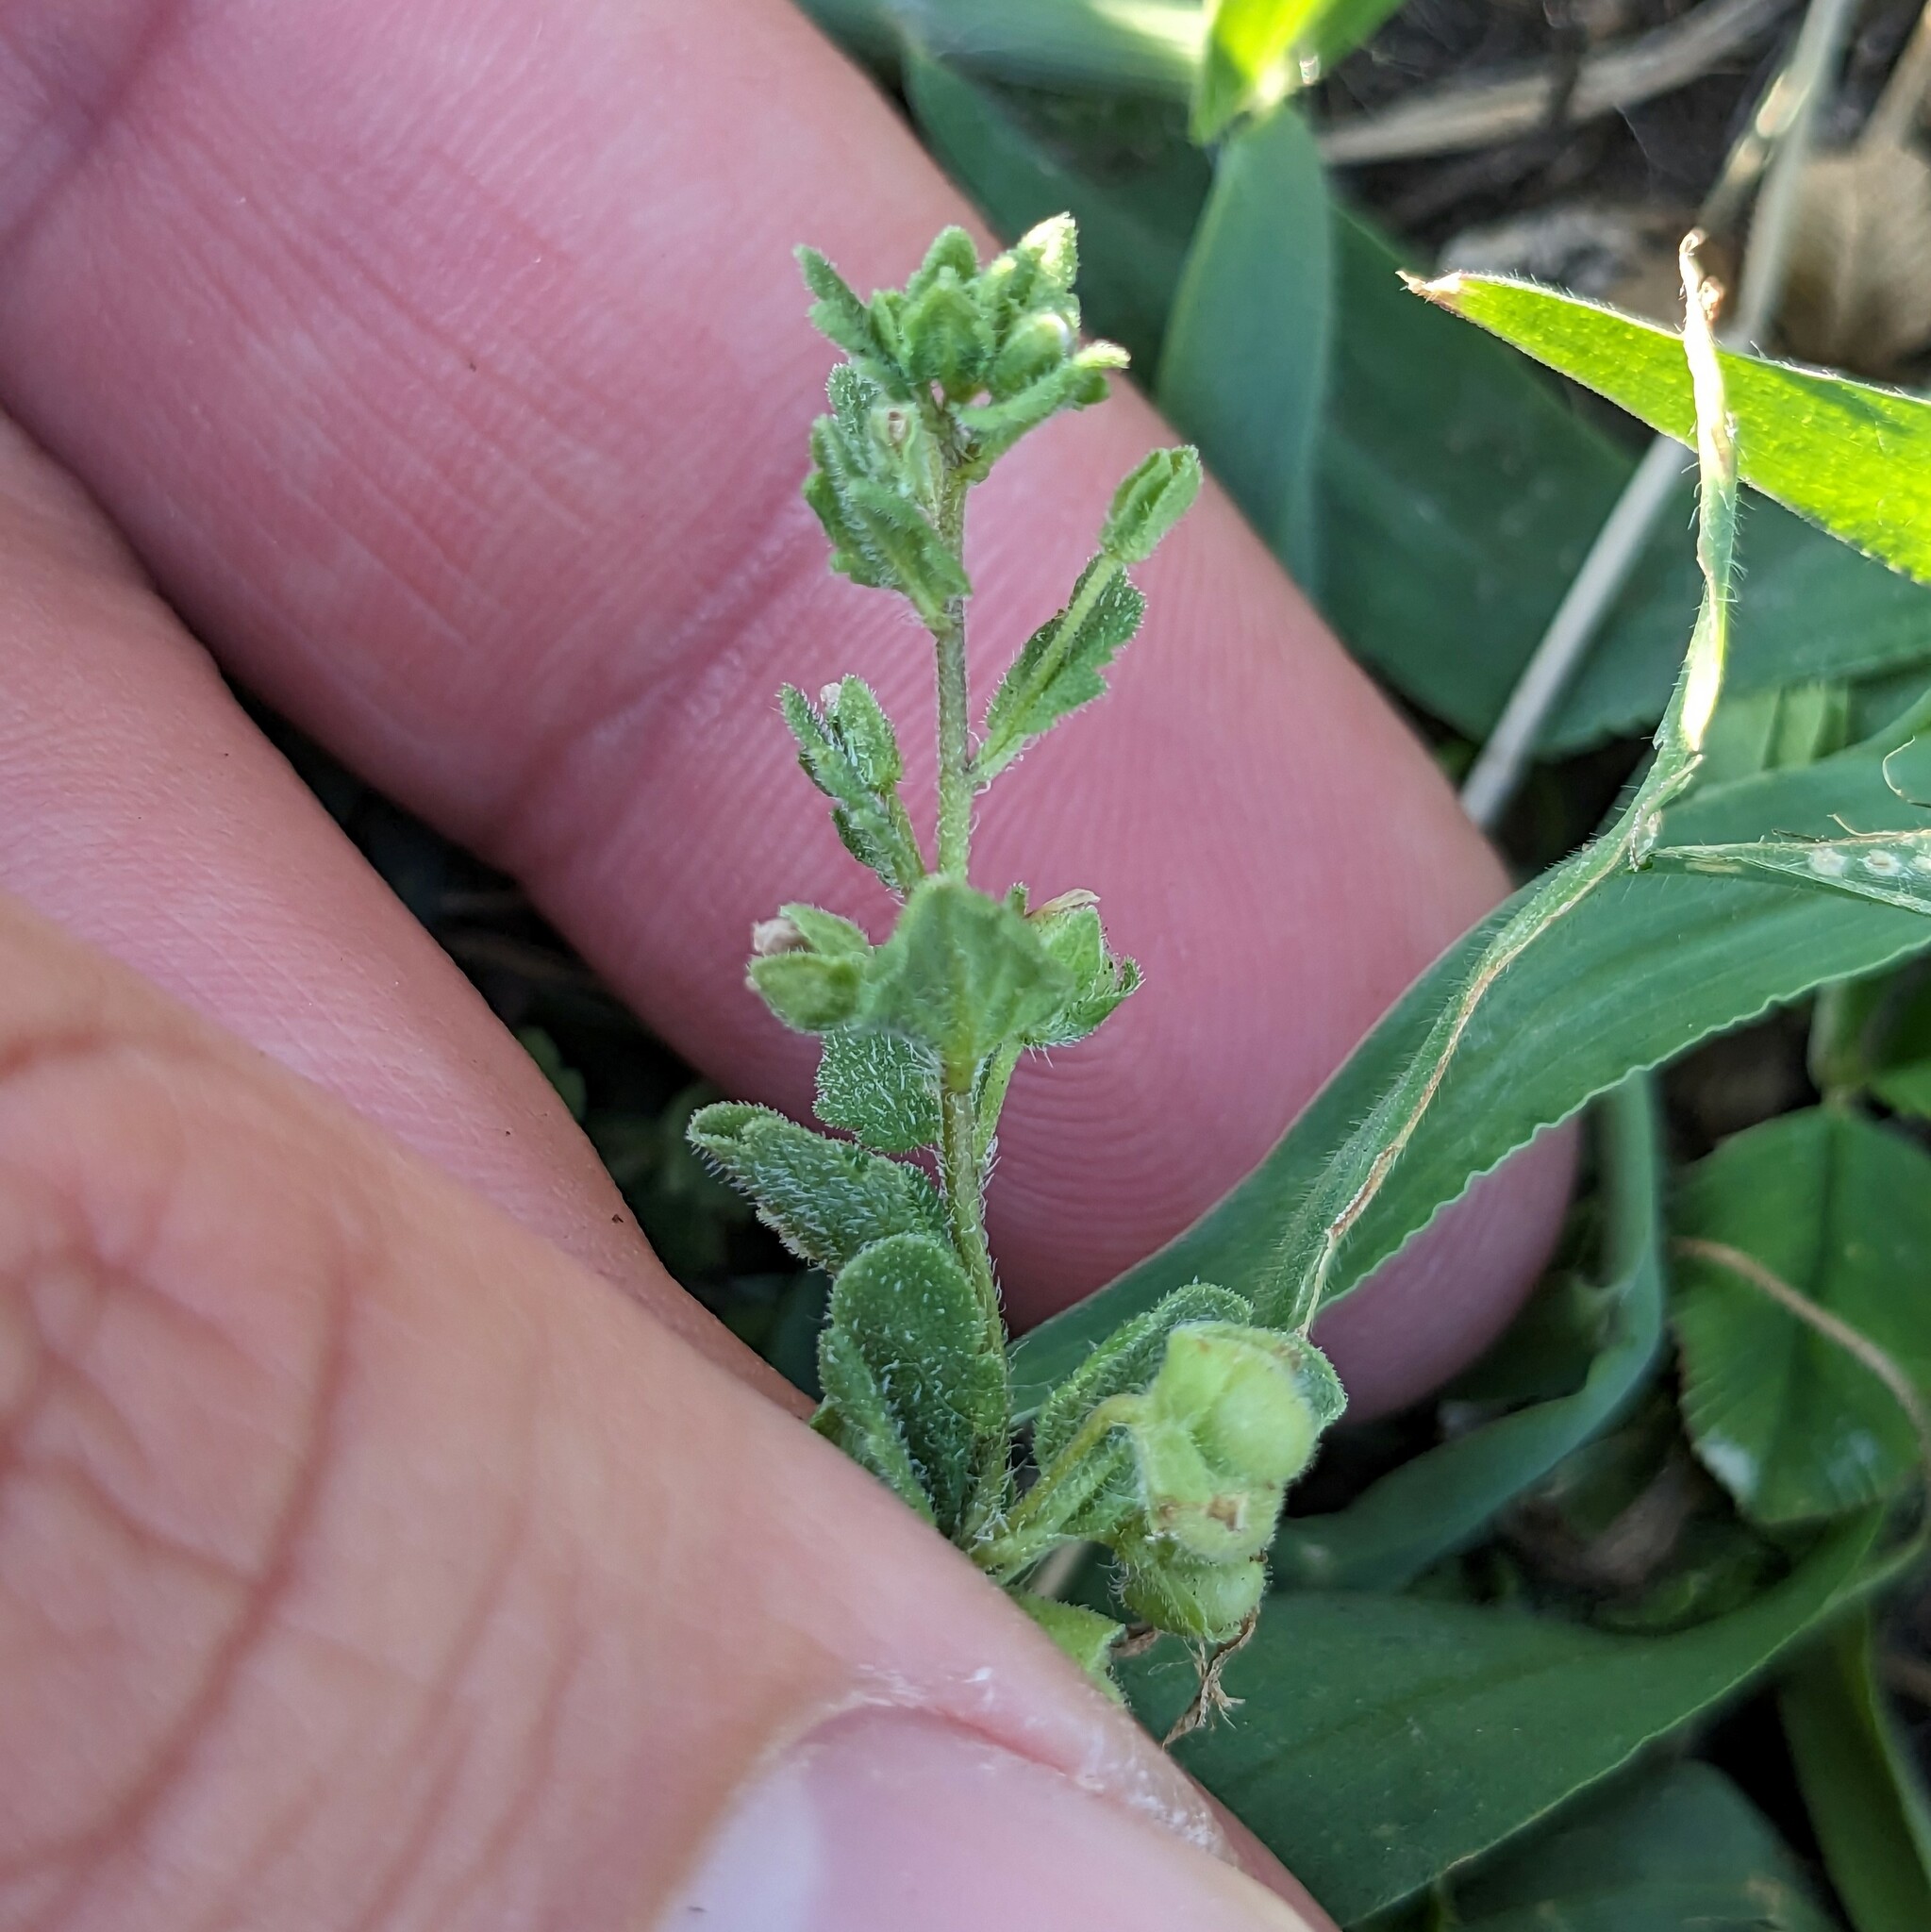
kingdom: Plantae
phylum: Tracheophyta
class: Magnoliopsida
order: Lamiales
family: Plantaginaceae
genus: Veronica
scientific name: Veronica polita
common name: Grey field-speedwell
